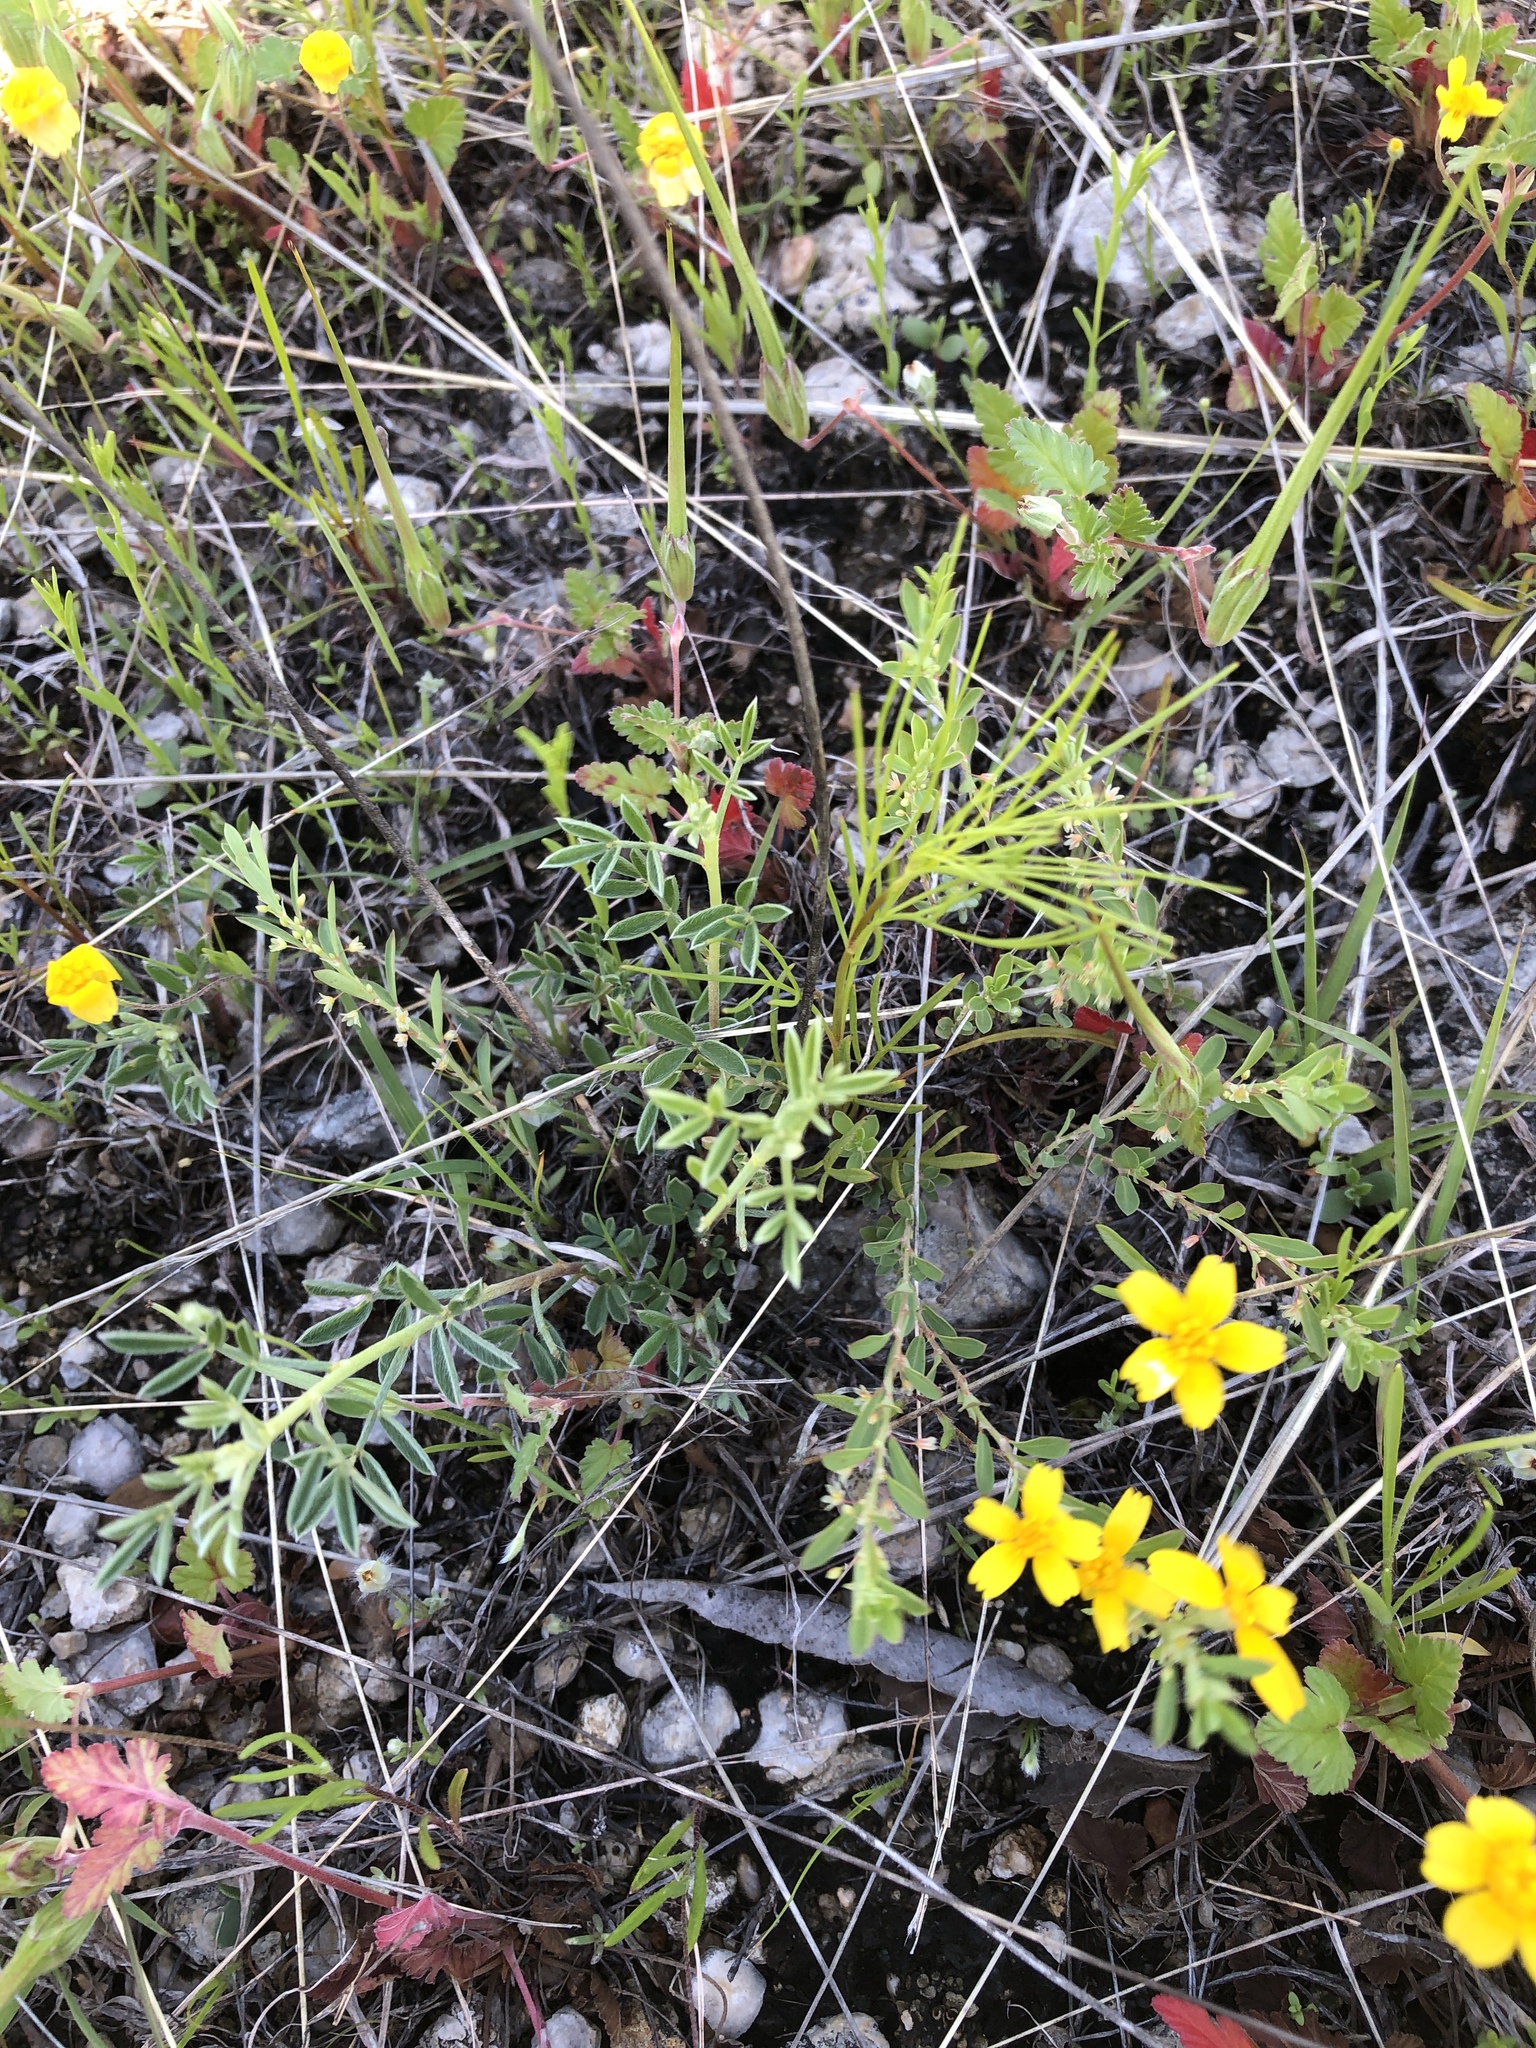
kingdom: Plantae
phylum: Tracheophyta
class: Magnoliopsida
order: Malpighiales
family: Phyllanthaceae
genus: Phyllanthus
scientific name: Phyllanthus polygonoides
